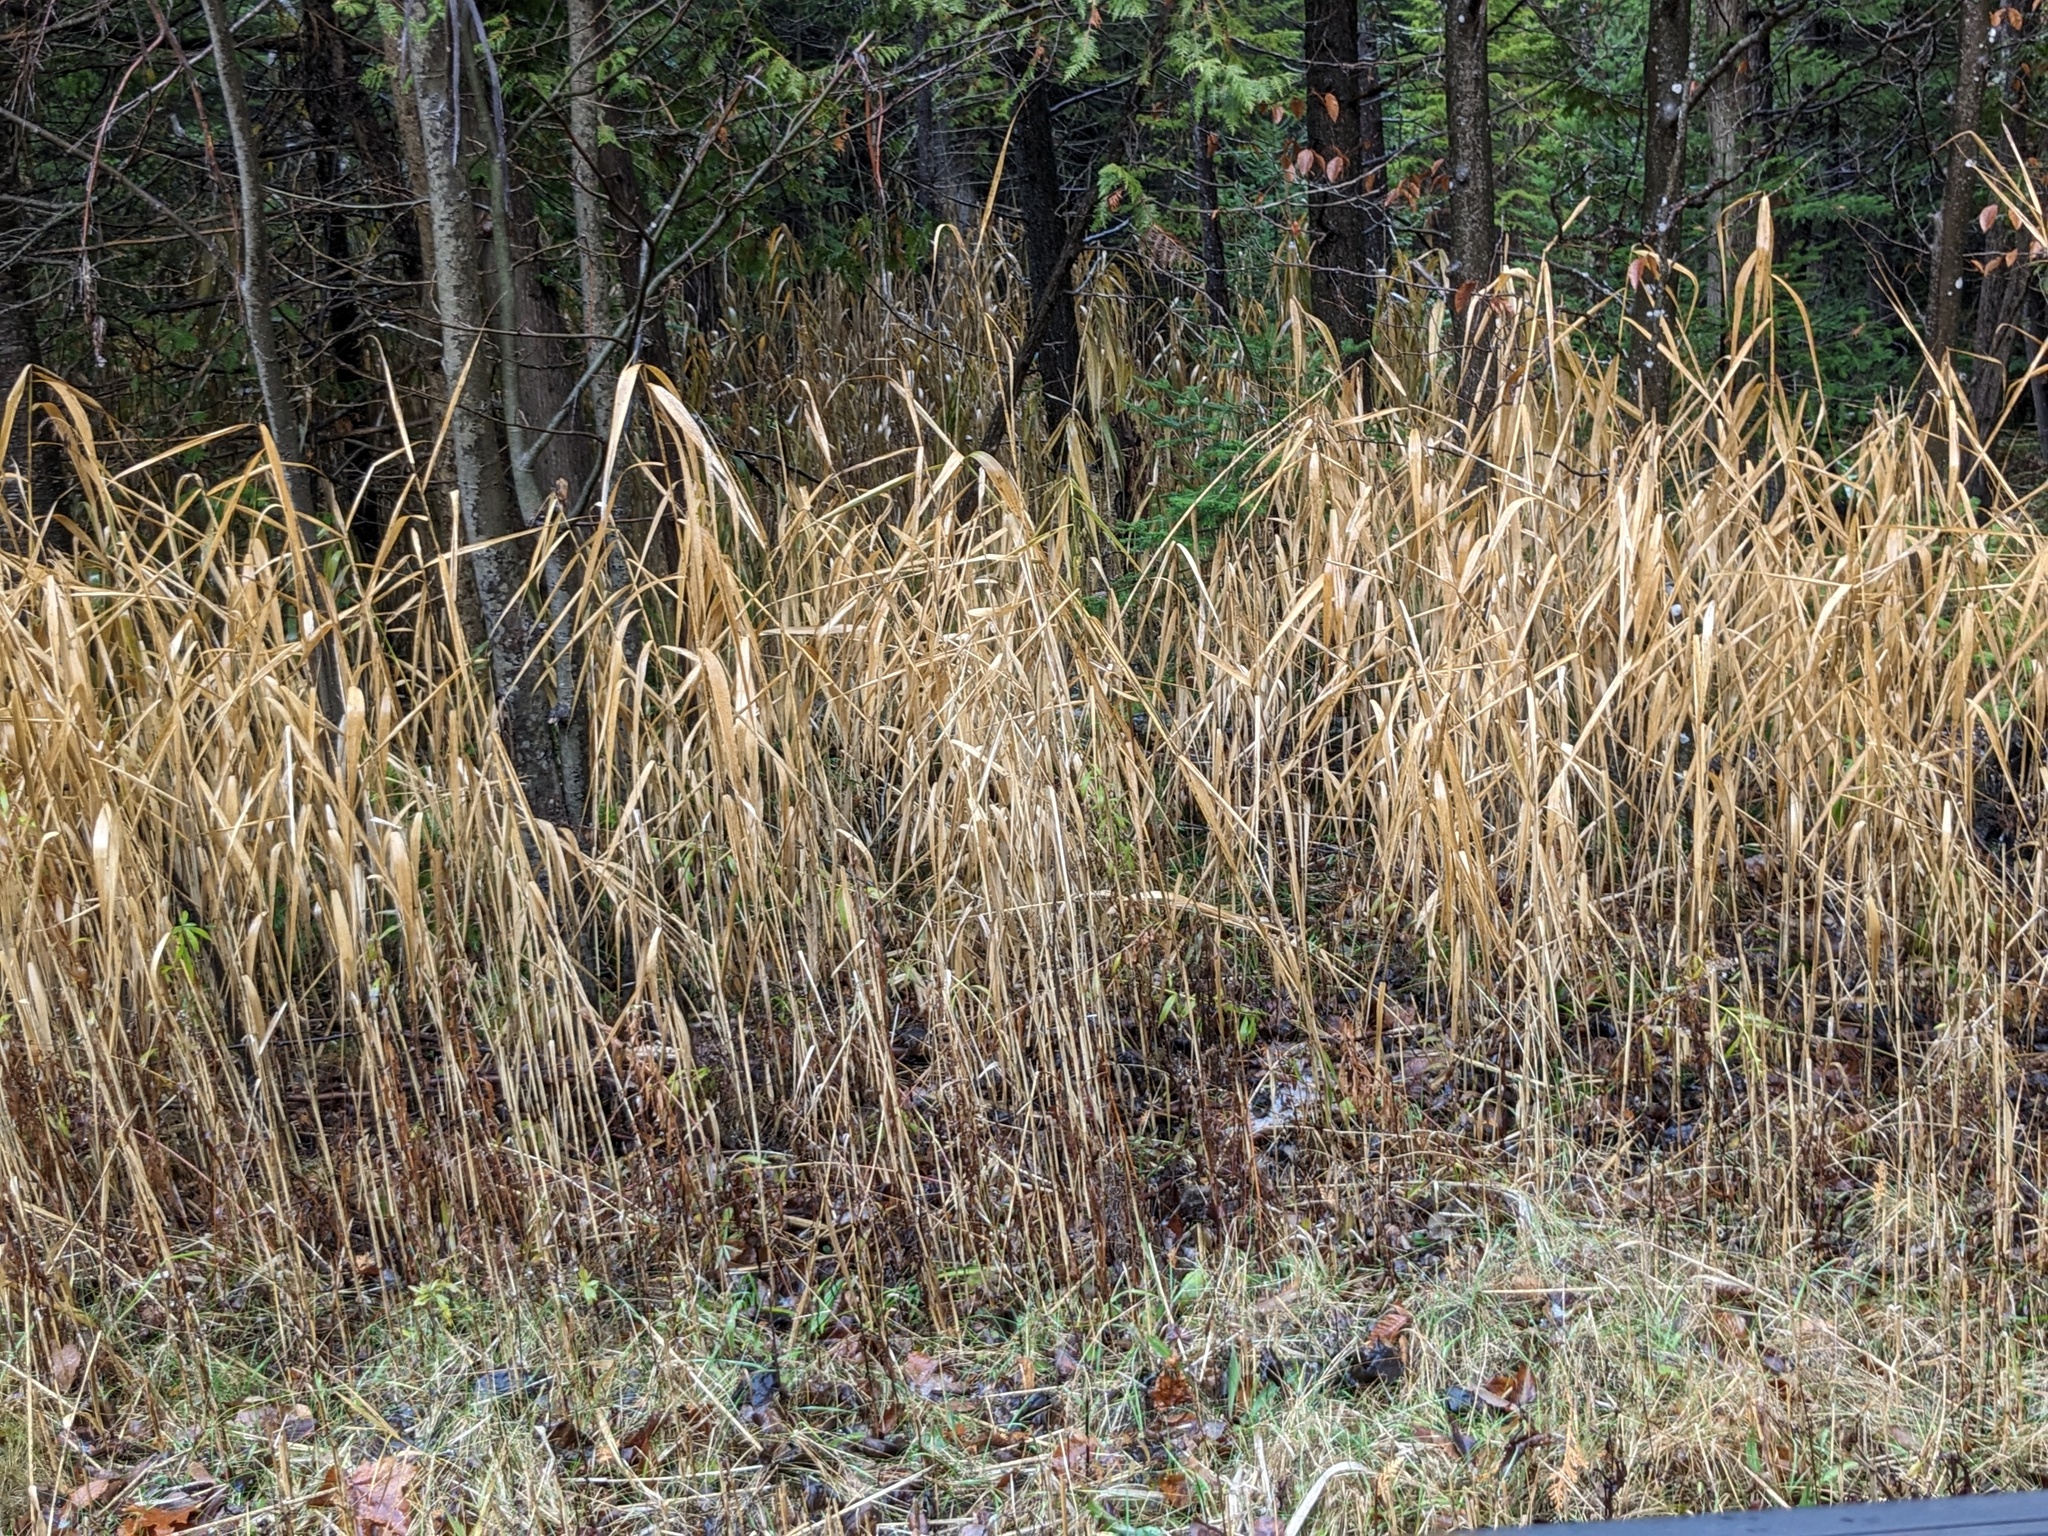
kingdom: Plantae
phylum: Tracheophyta
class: Liliopsida
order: Poales
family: Poaceae
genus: Phragmites
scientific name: Phragmites australis
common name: Common reed
